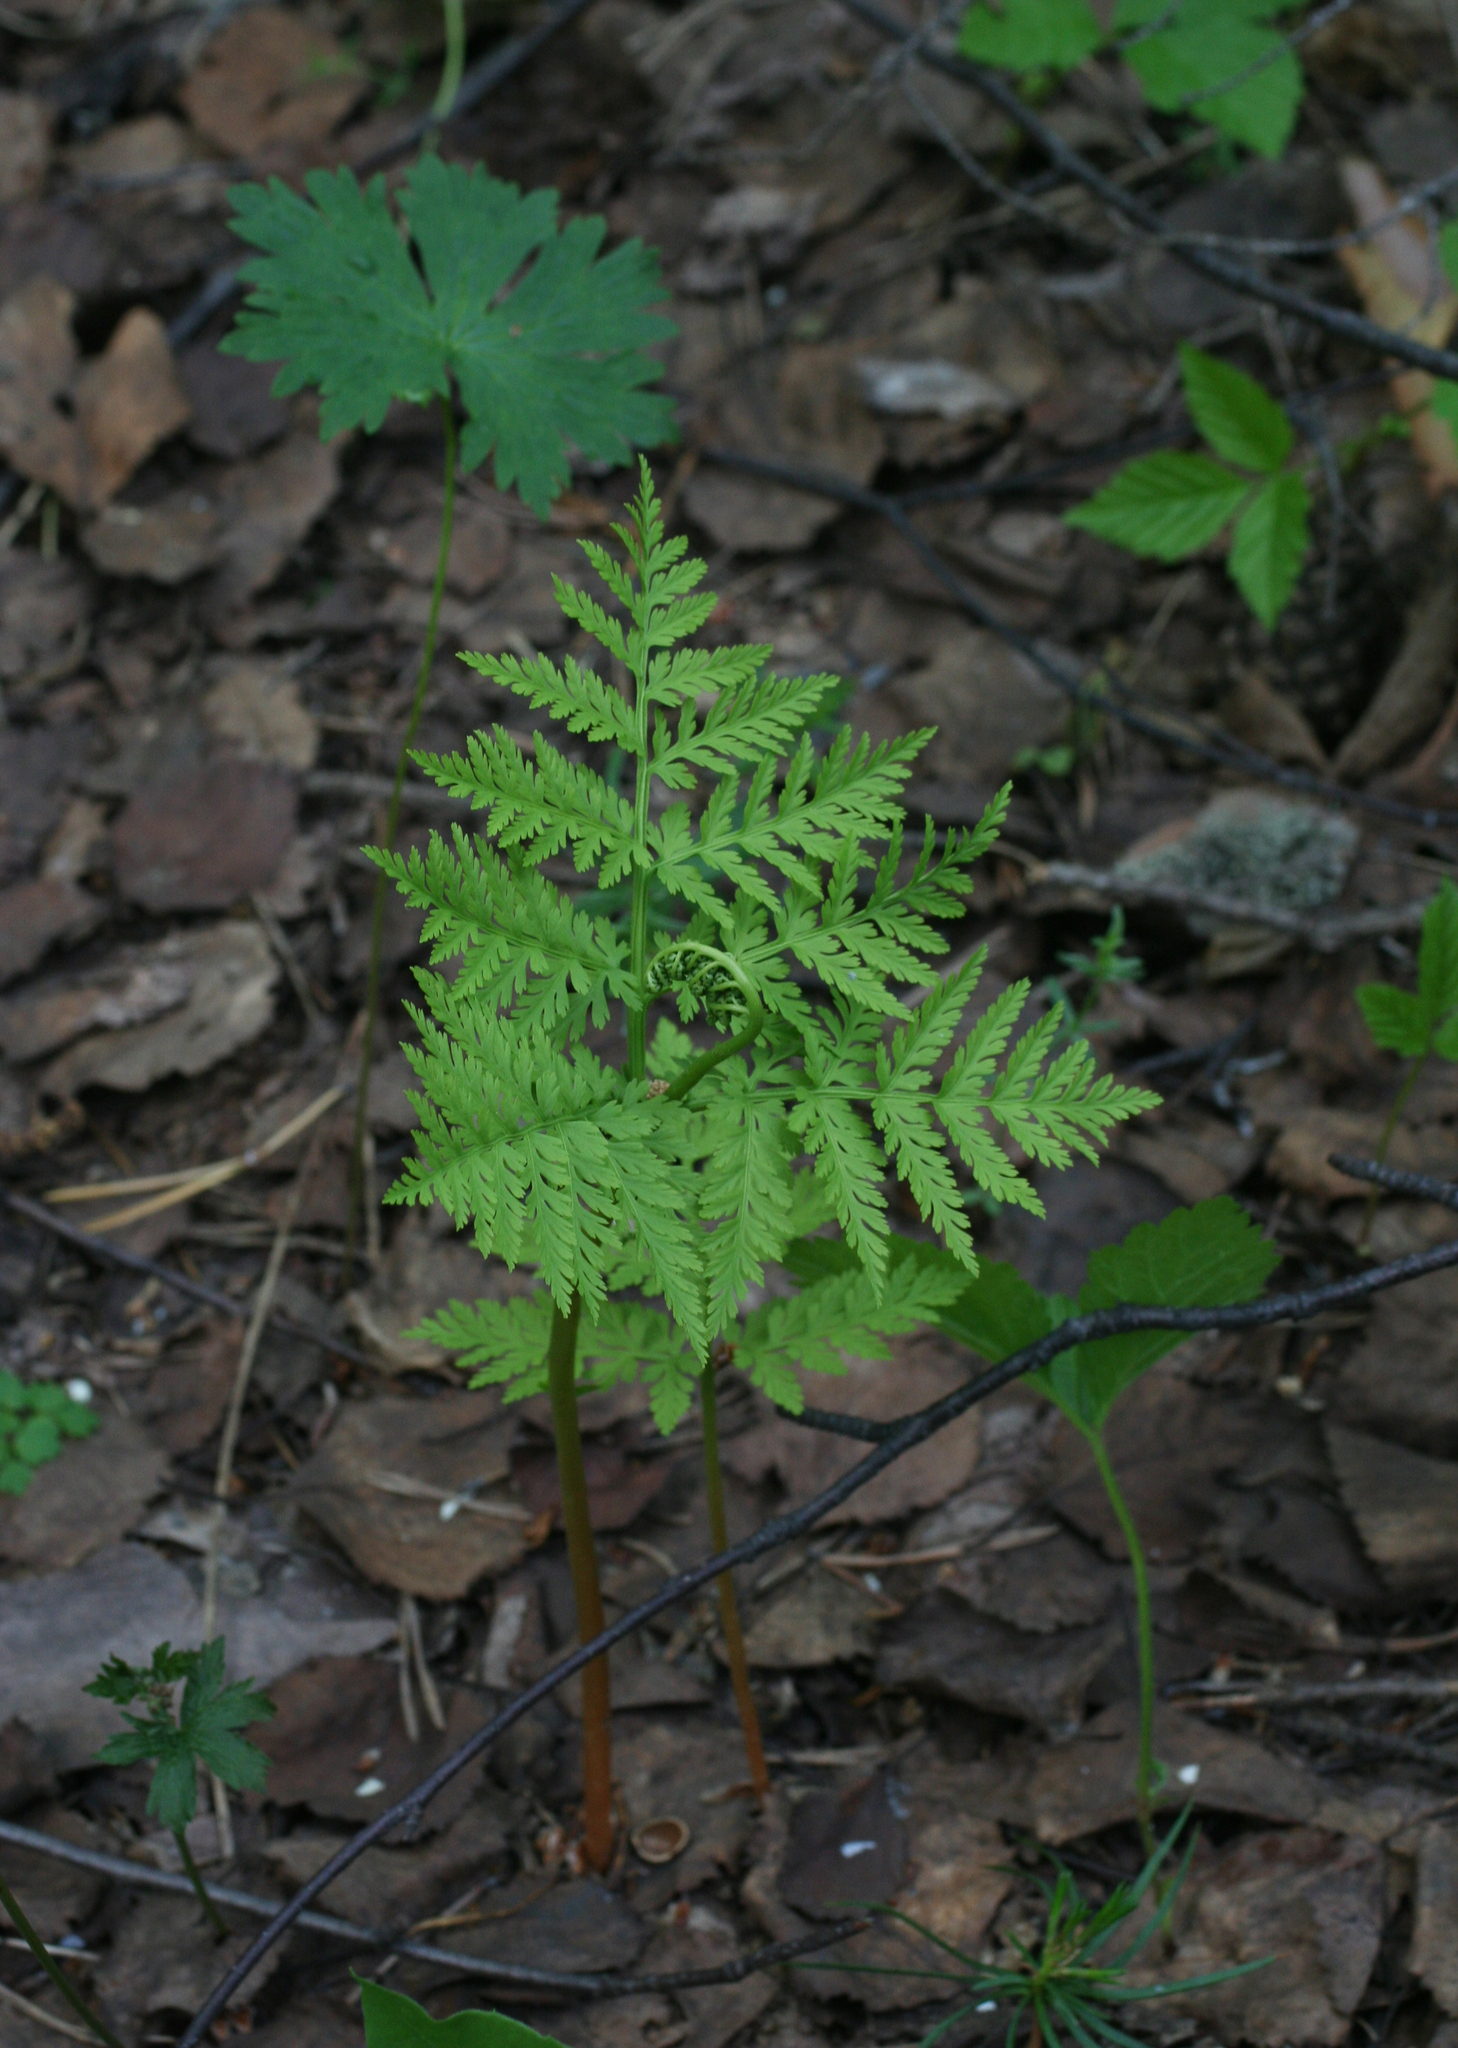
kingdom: Plantae
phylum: Tracheophyta
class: Polypodiopsida
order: Ophioglossales
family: Ophioglossaceae
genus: Botrypus
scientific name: Botrypus virginianus
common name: Common grapefern
